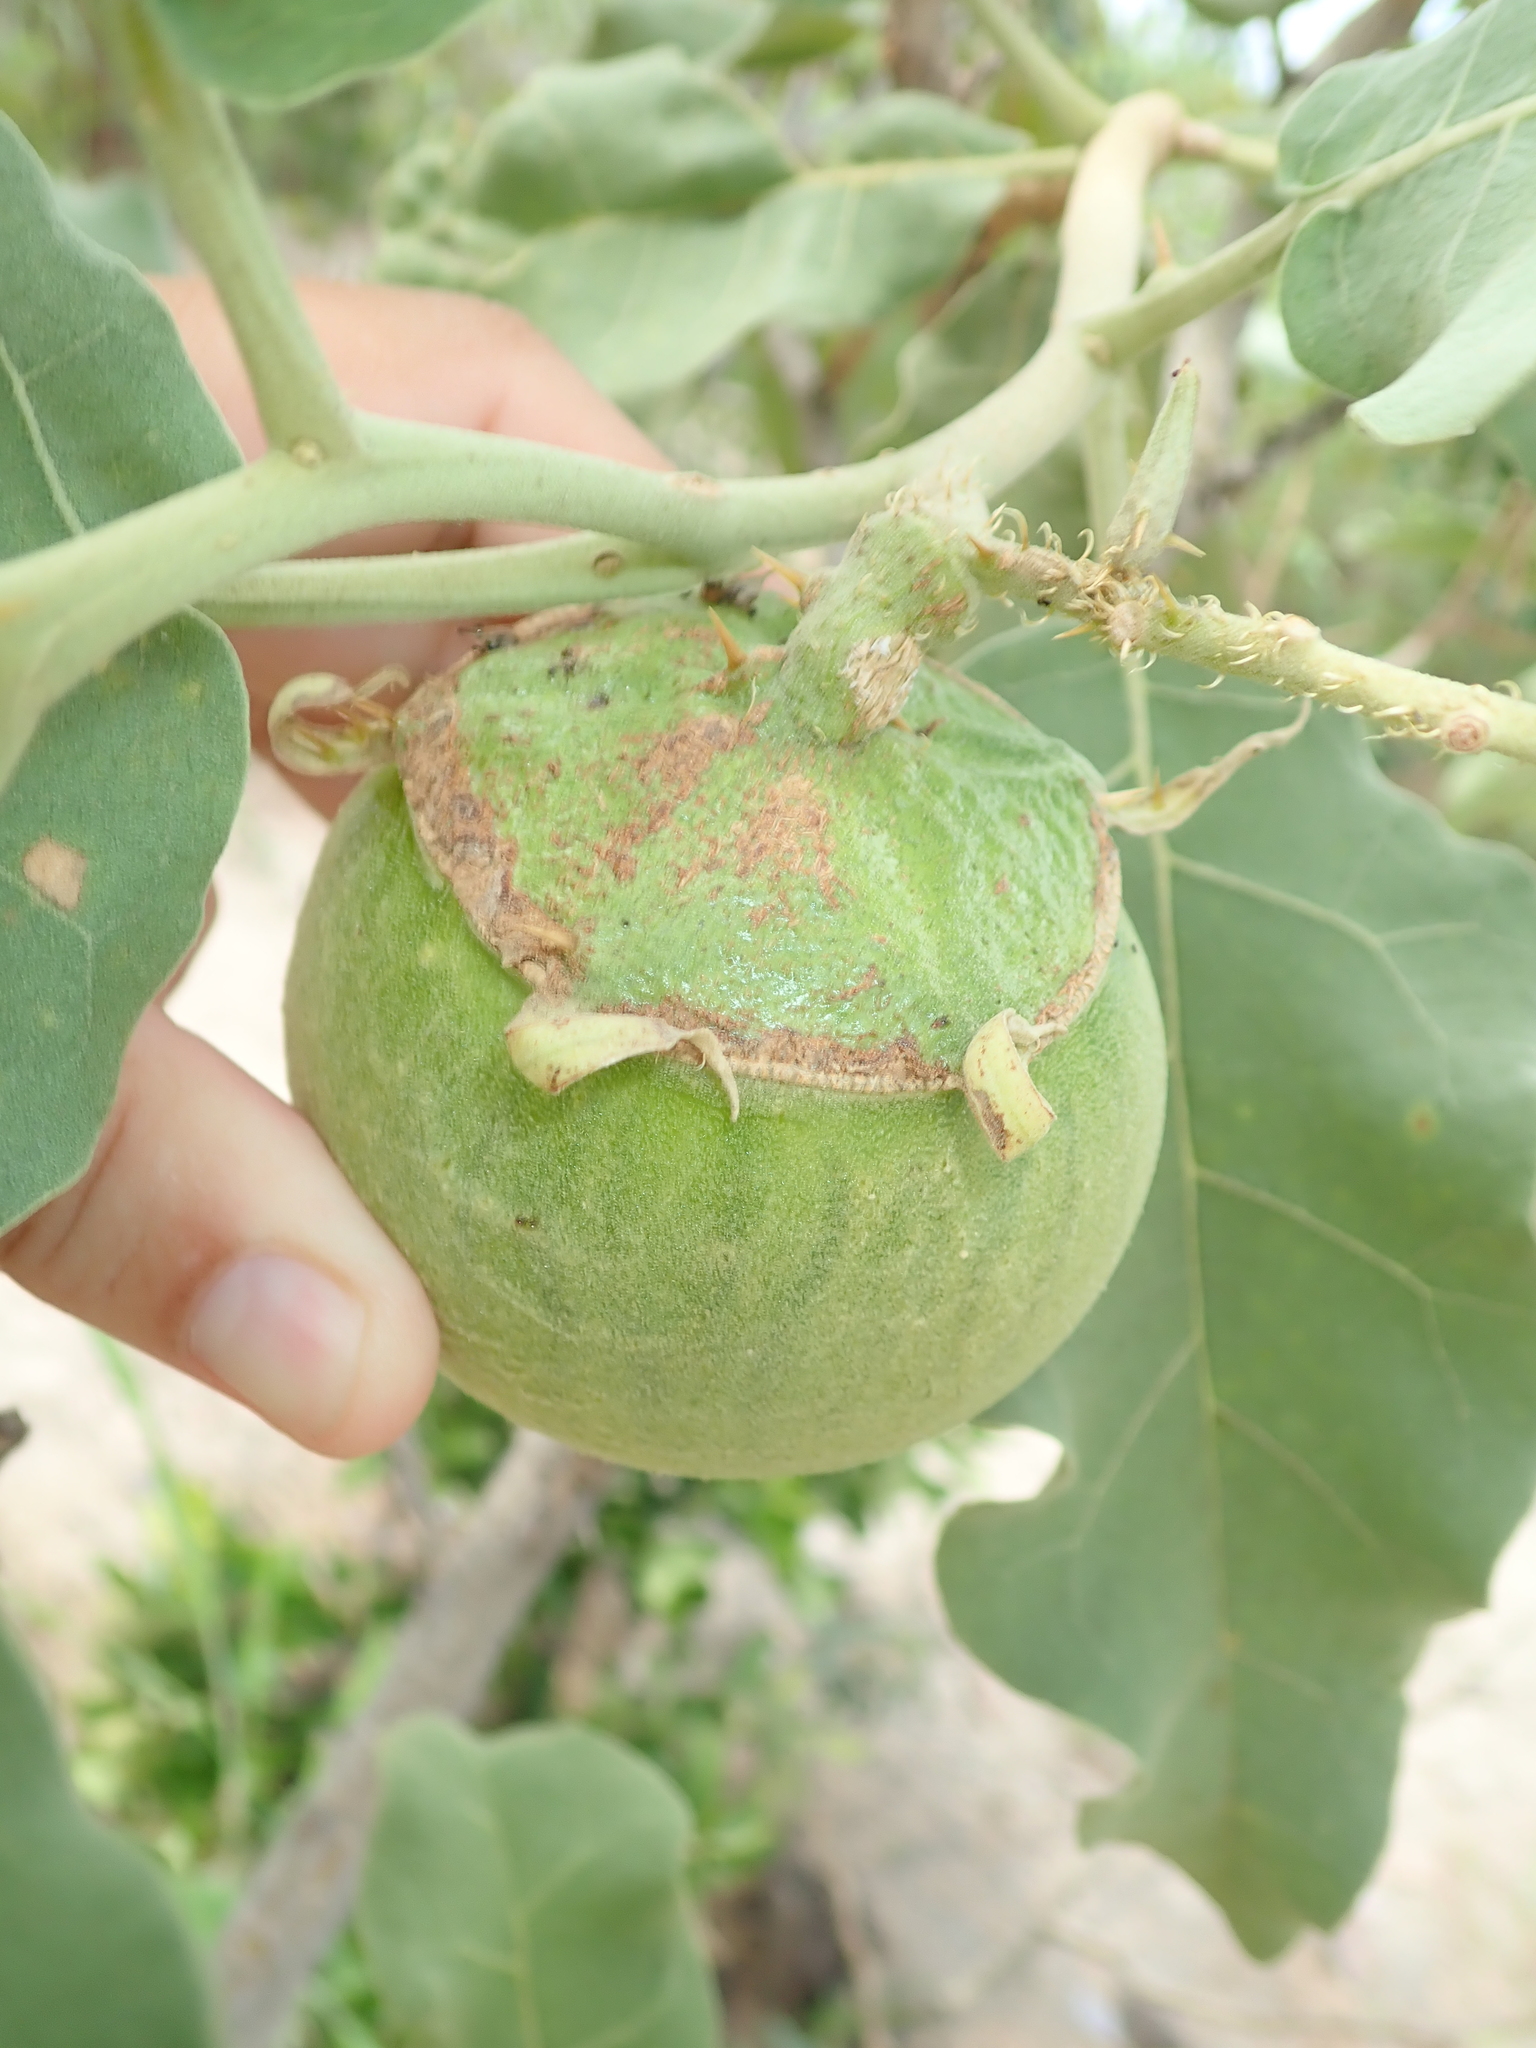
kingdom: Plantae
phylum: Tracheophyta
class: Magnoliopsida
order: Solanales
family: Solanaceae
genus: Solanum
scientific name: Solanum lycocarpum
